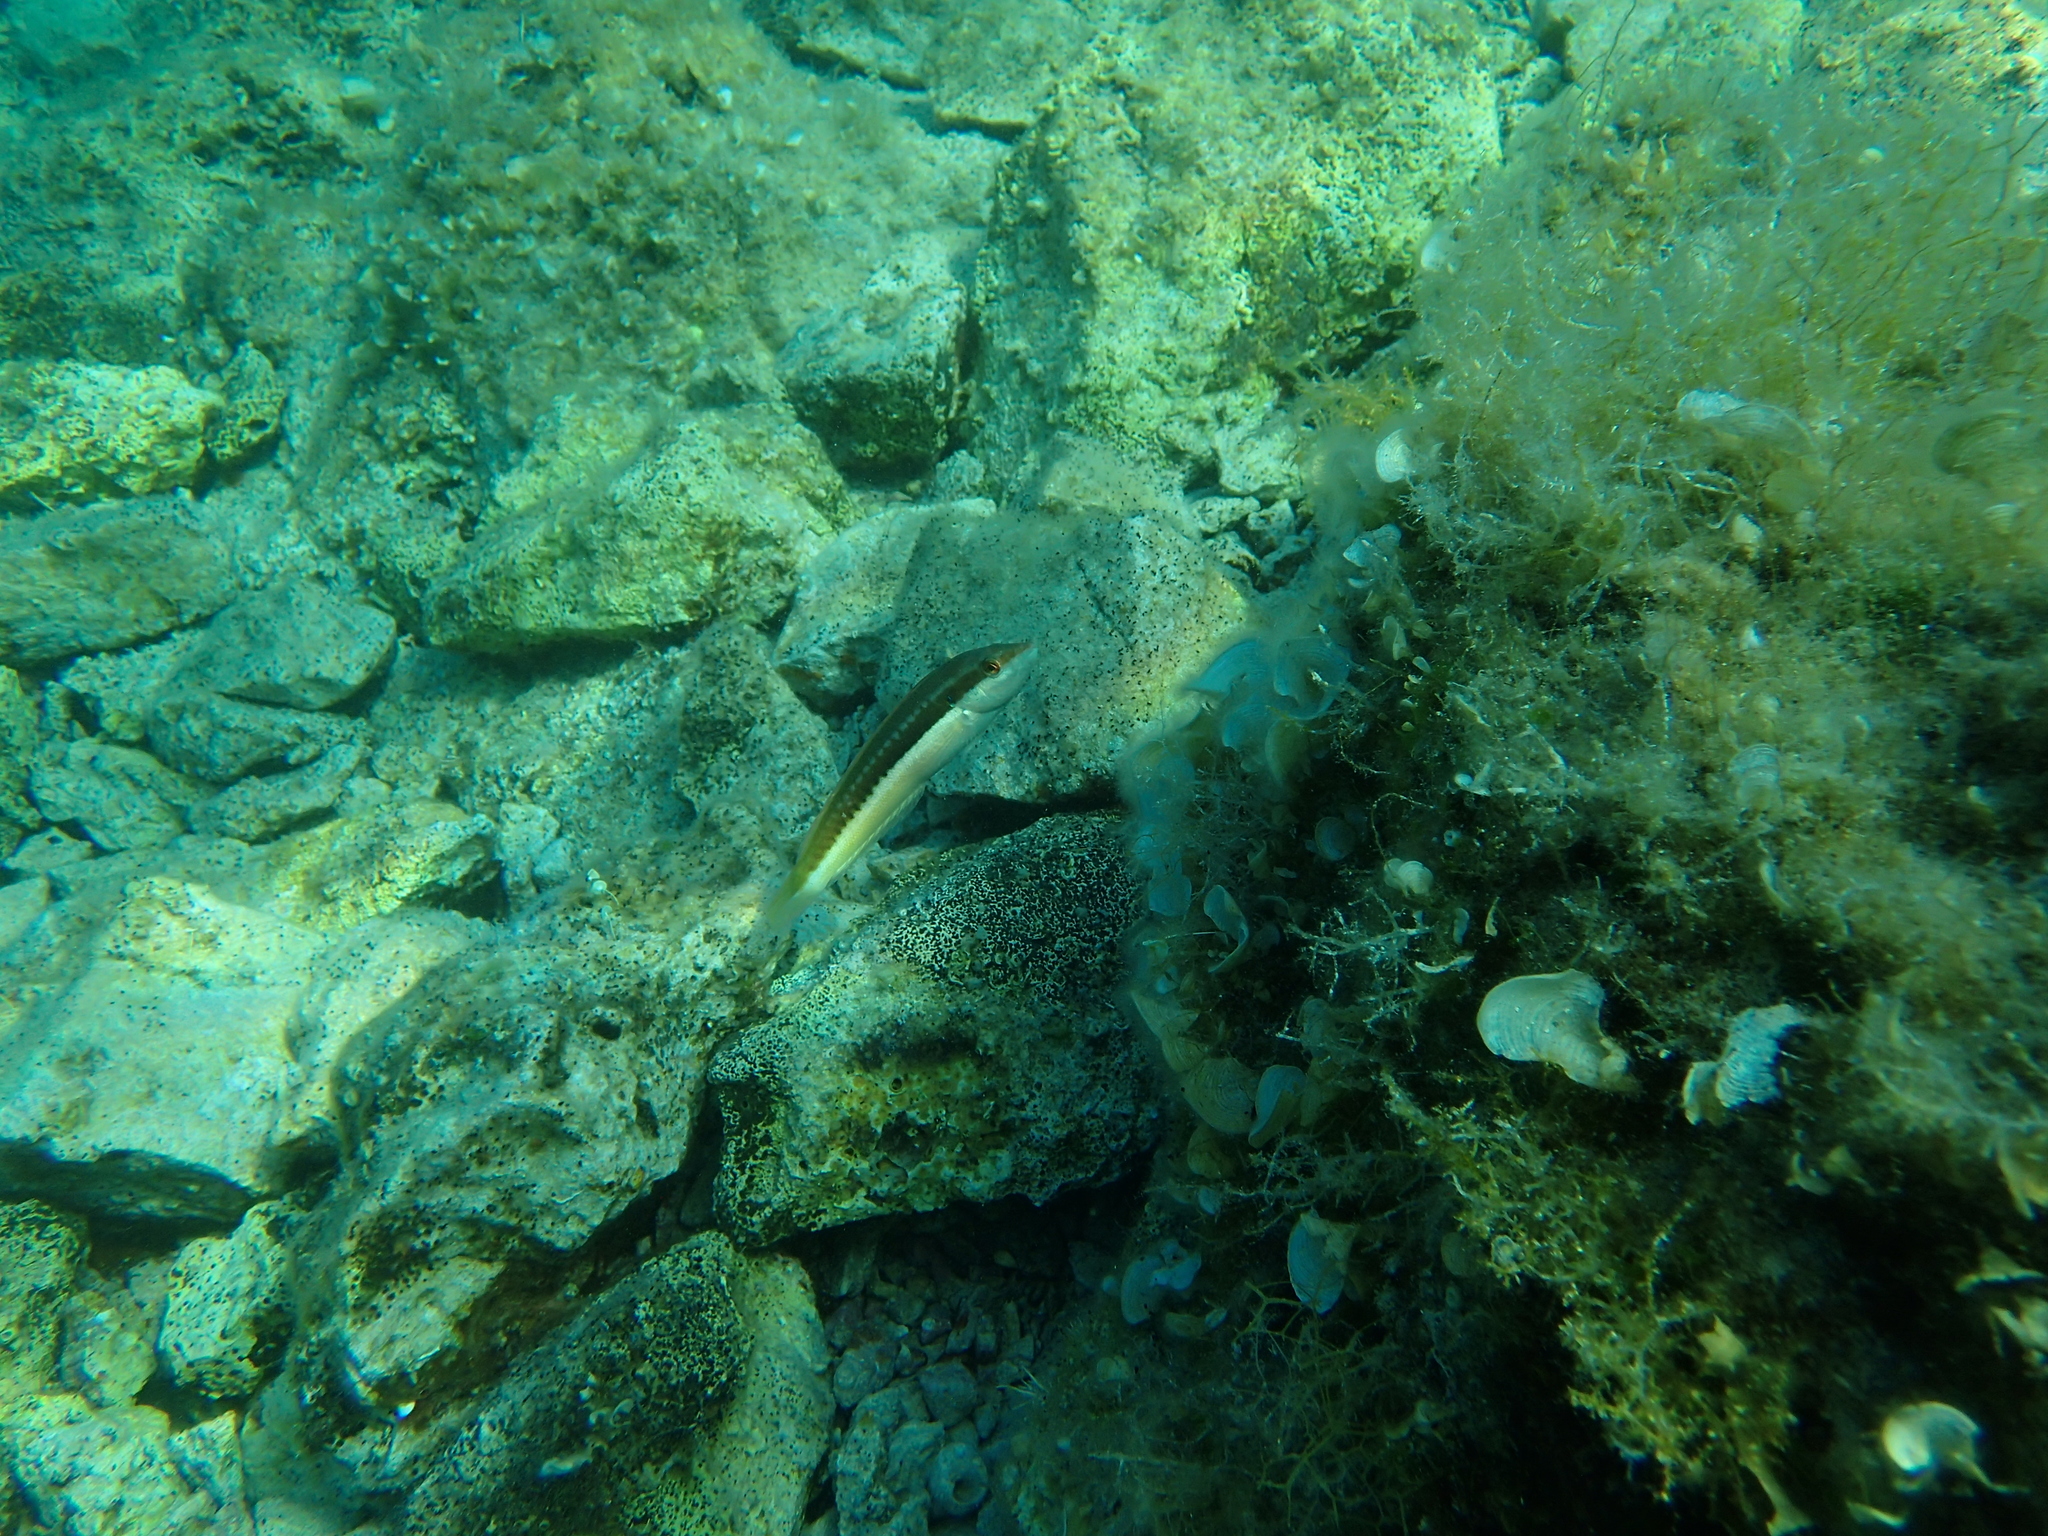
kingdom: Animalia
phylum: Chordata
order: Perciformes
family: Labridae
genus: Coris
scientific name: Coris julis
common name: Rainbow wrasse
